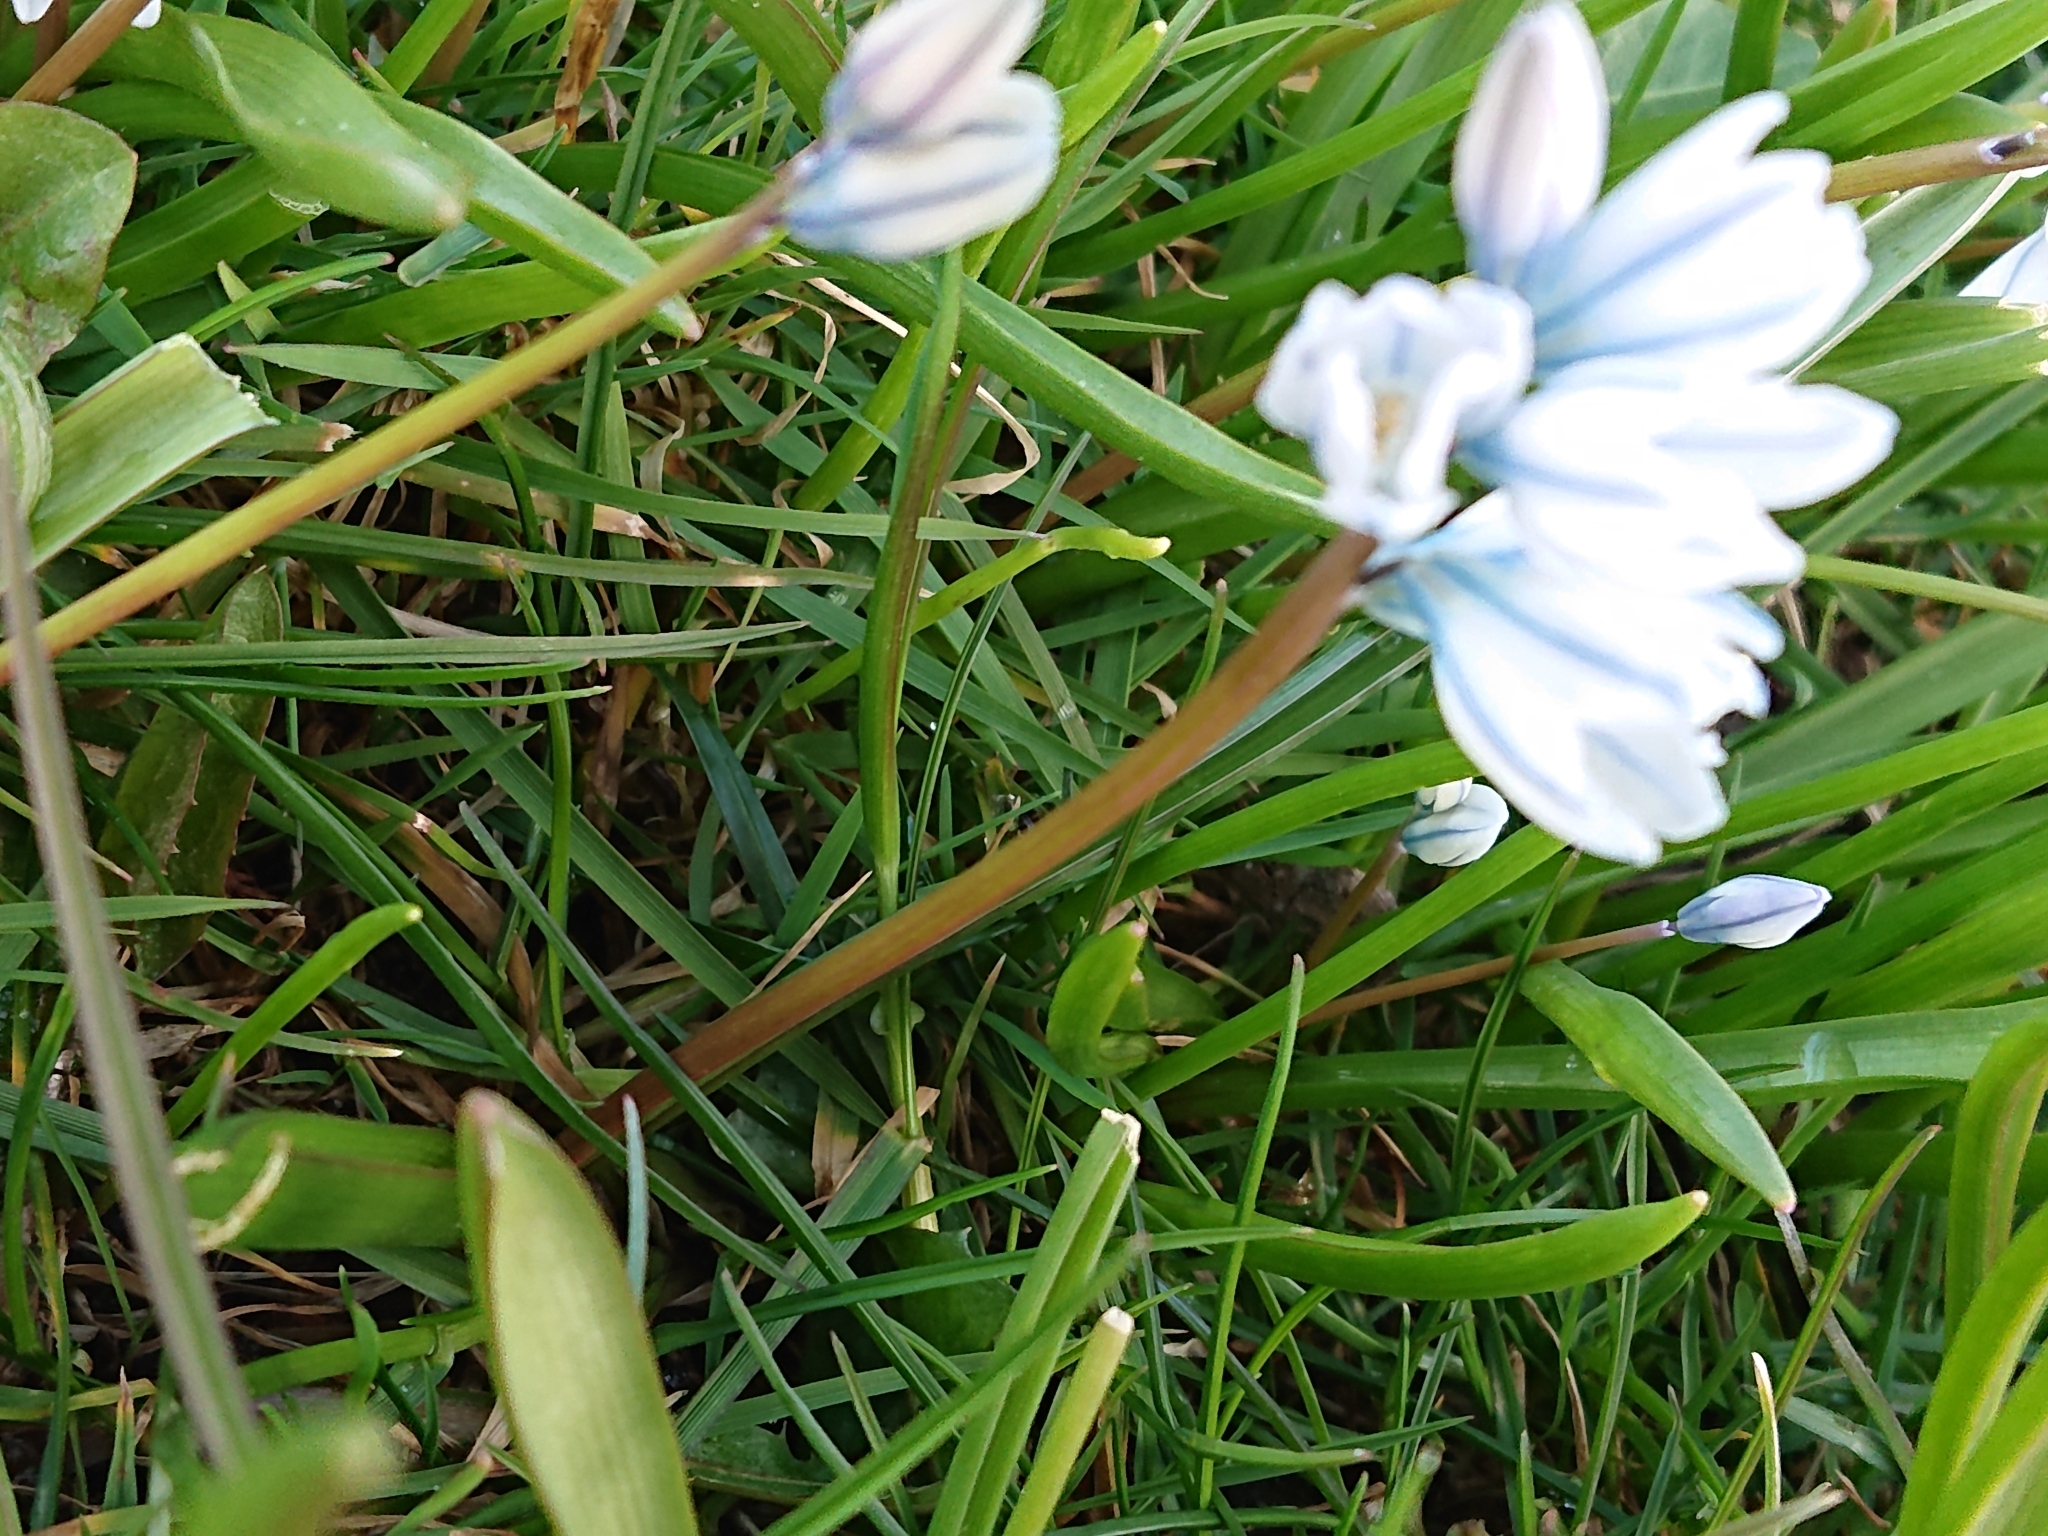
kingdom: Plantae
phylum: Tracheophyta
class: Liliopsida
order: Asparagales
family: Asparagaceae
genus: Puschkinia
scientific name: Puschkinia scilloides
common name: Striped squill
